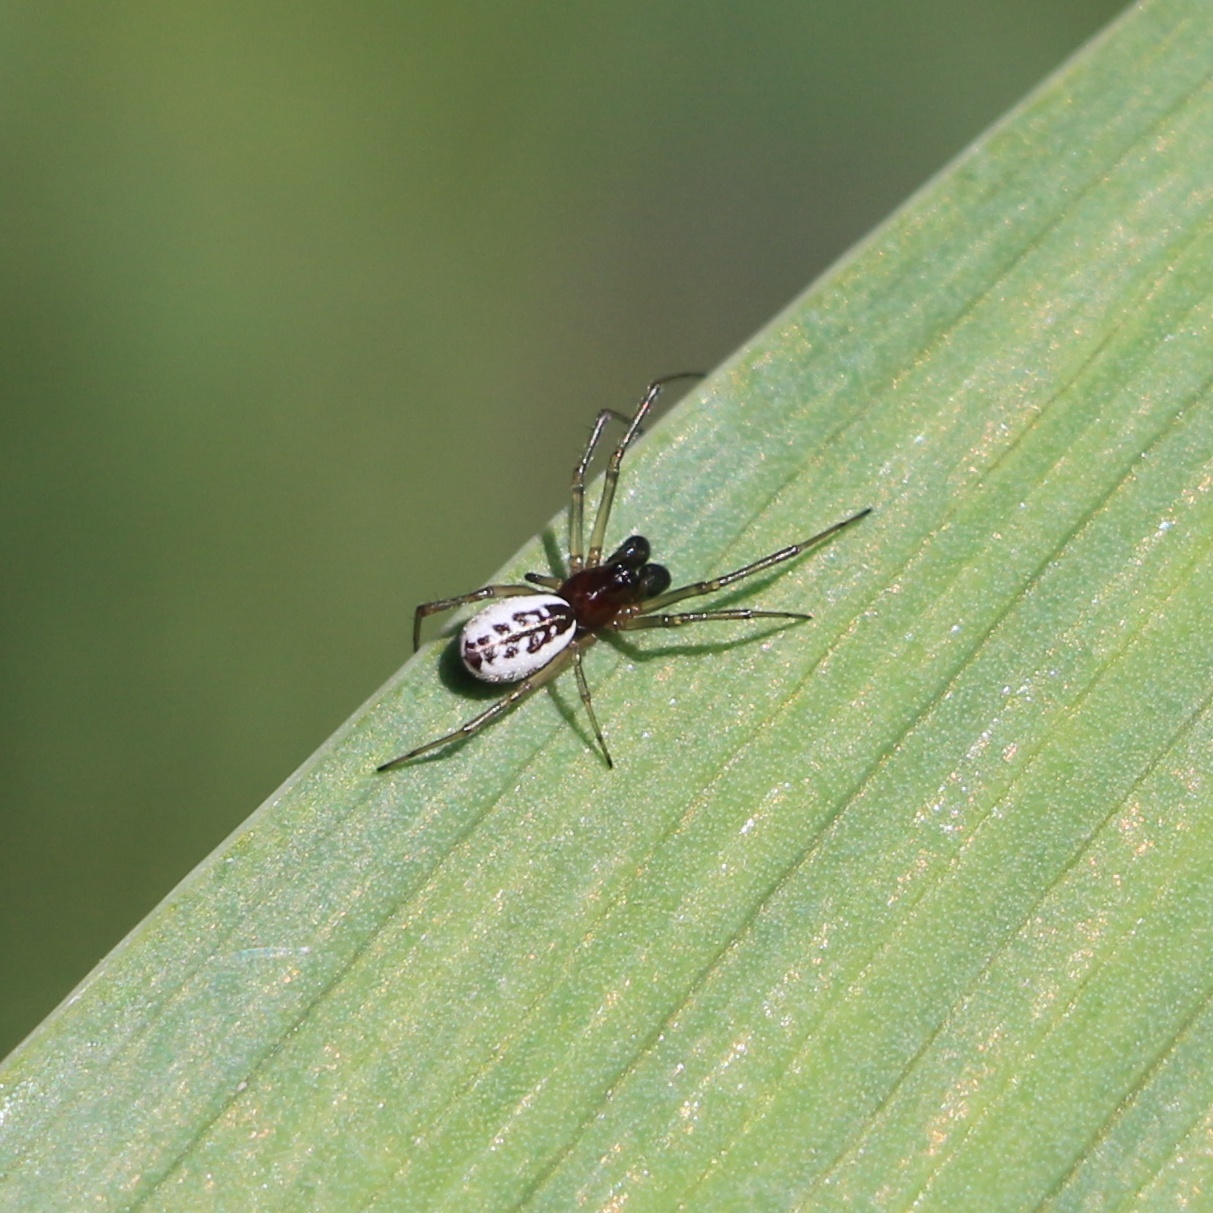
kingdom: Animalia
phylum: Arthropoda
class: Arachnida
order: Araneae
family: Linyphiidae
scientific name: Linyphiidae
